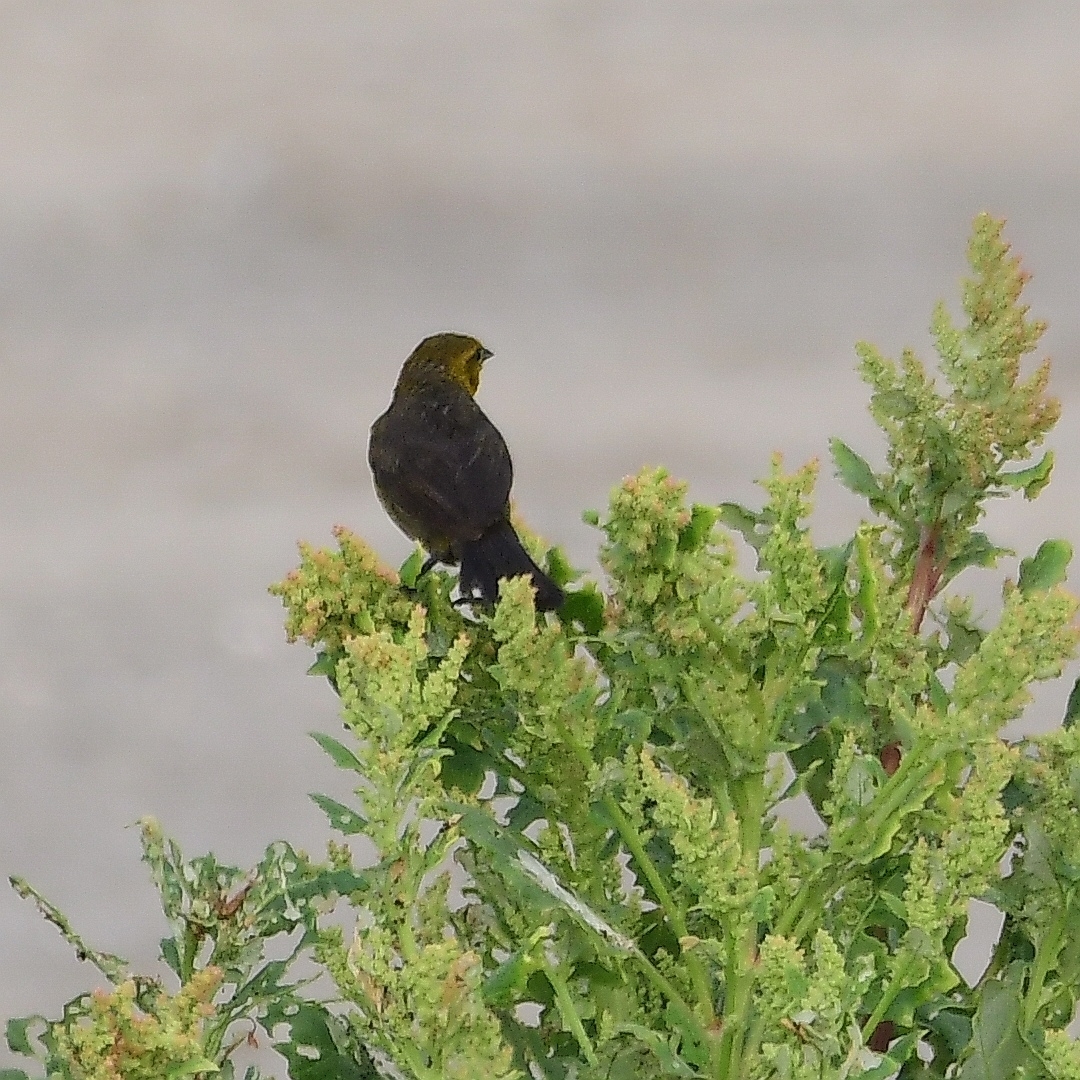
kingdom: Animalia
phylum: Chordata
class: Aves
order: Passeriformes
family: Icteridae
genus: Chrysomus
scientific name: Chrysomus icterocephalus
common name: Yellow-hooded blackbird
